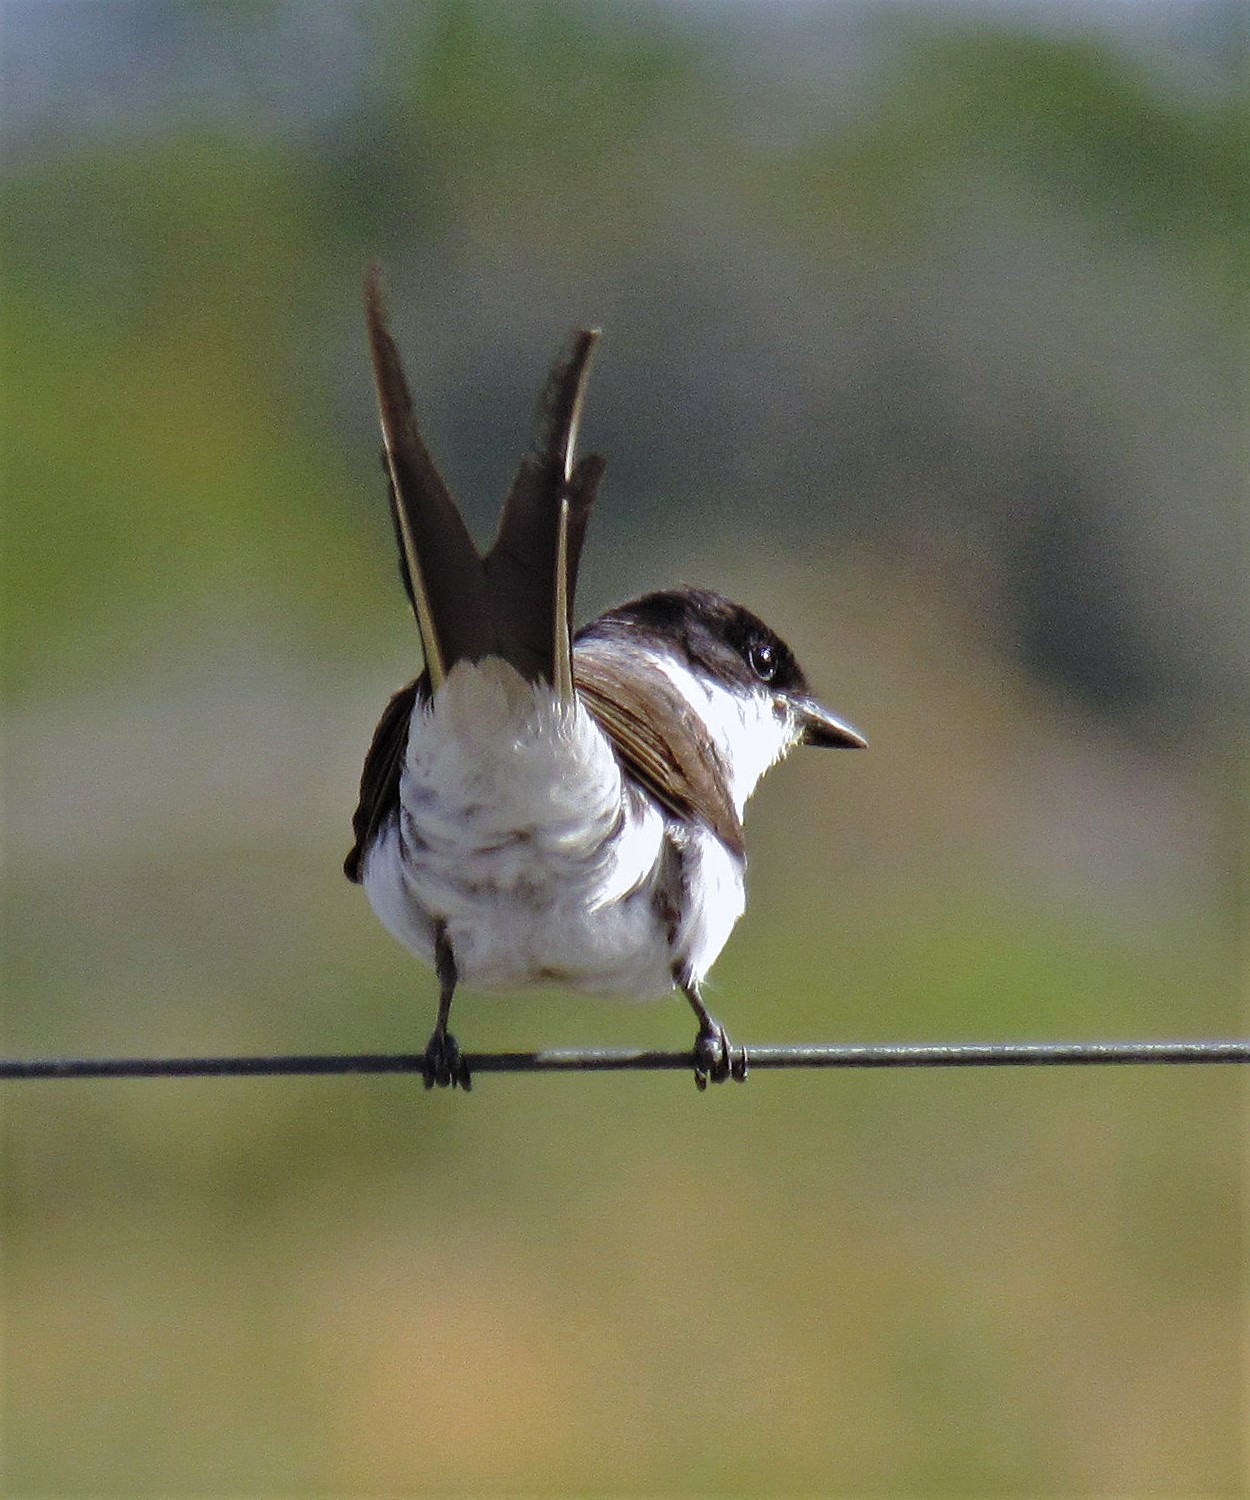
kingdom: Animalia
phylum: Chordata
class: Aves
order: Passeriformes
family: Tyrannidae
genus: Tyrannus
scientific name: Tyrannus savana
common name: Fork-tailed flycatcher
